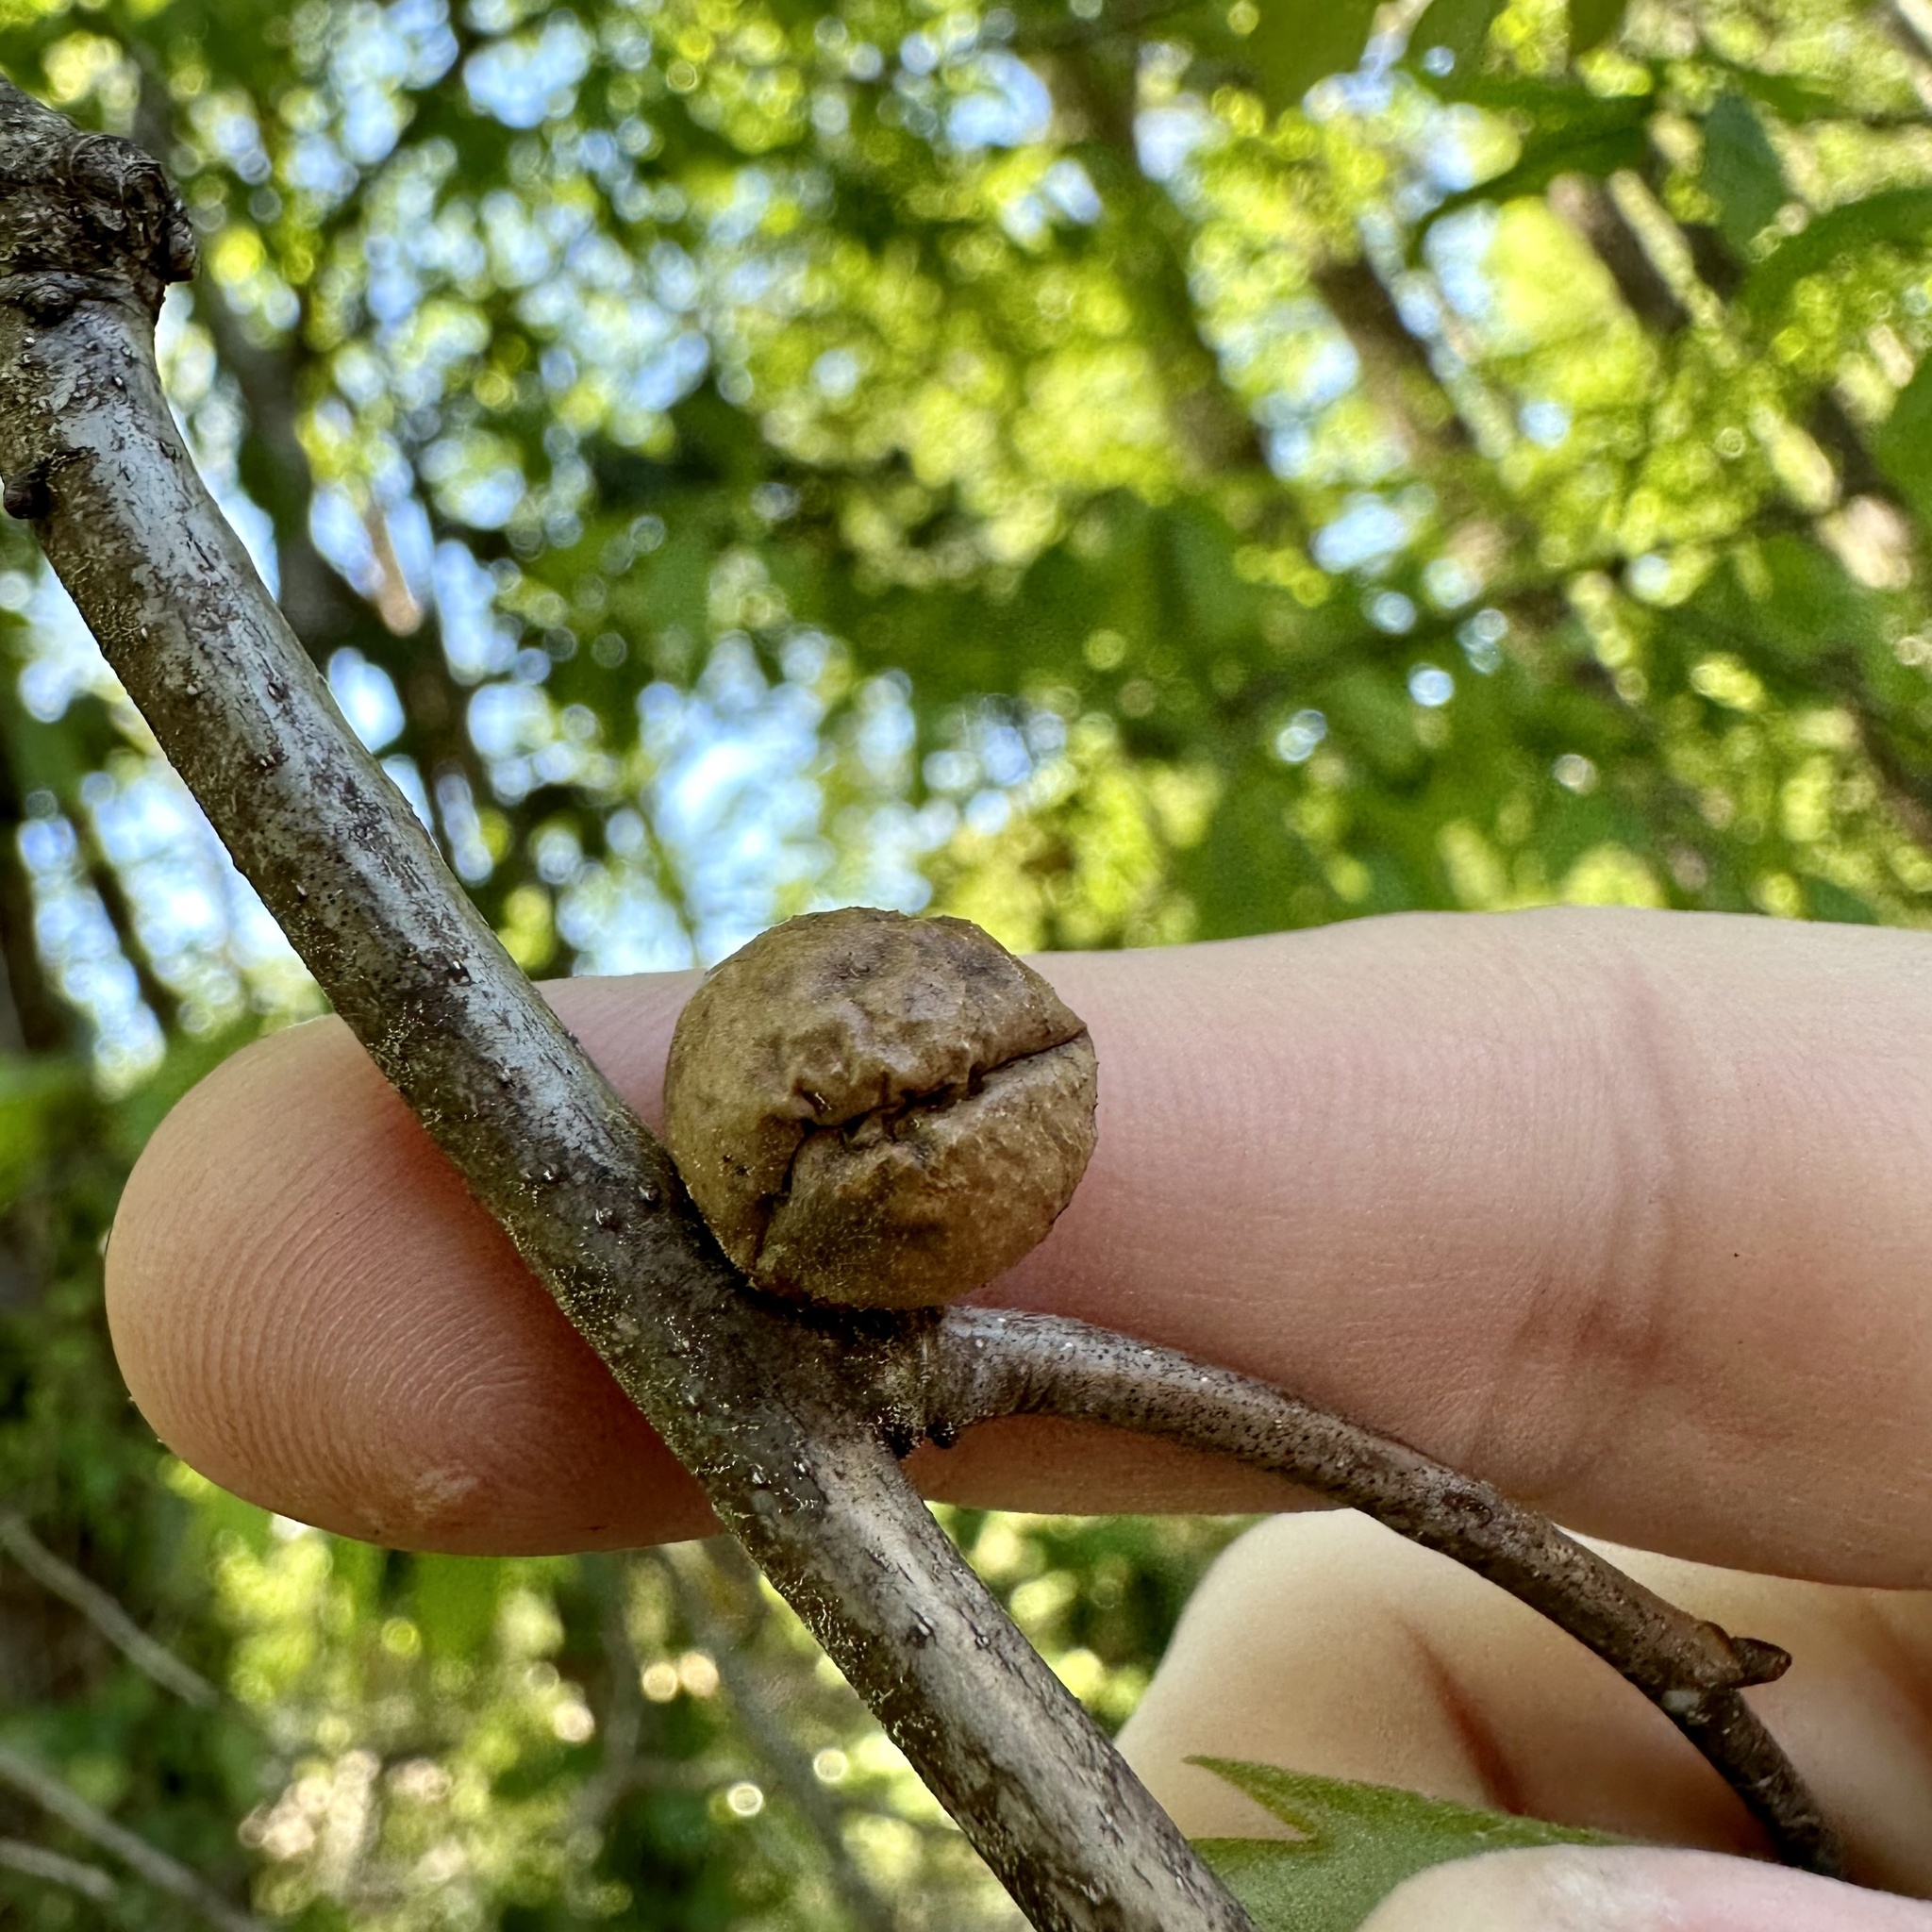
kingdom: Animalia
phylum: Arthropoda
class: Insecta
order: Hymenoptera
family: Cynipidae
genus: Disholcaspis
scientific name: Disholcaspis quercusglobulus
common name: Round bullet gall wasp
